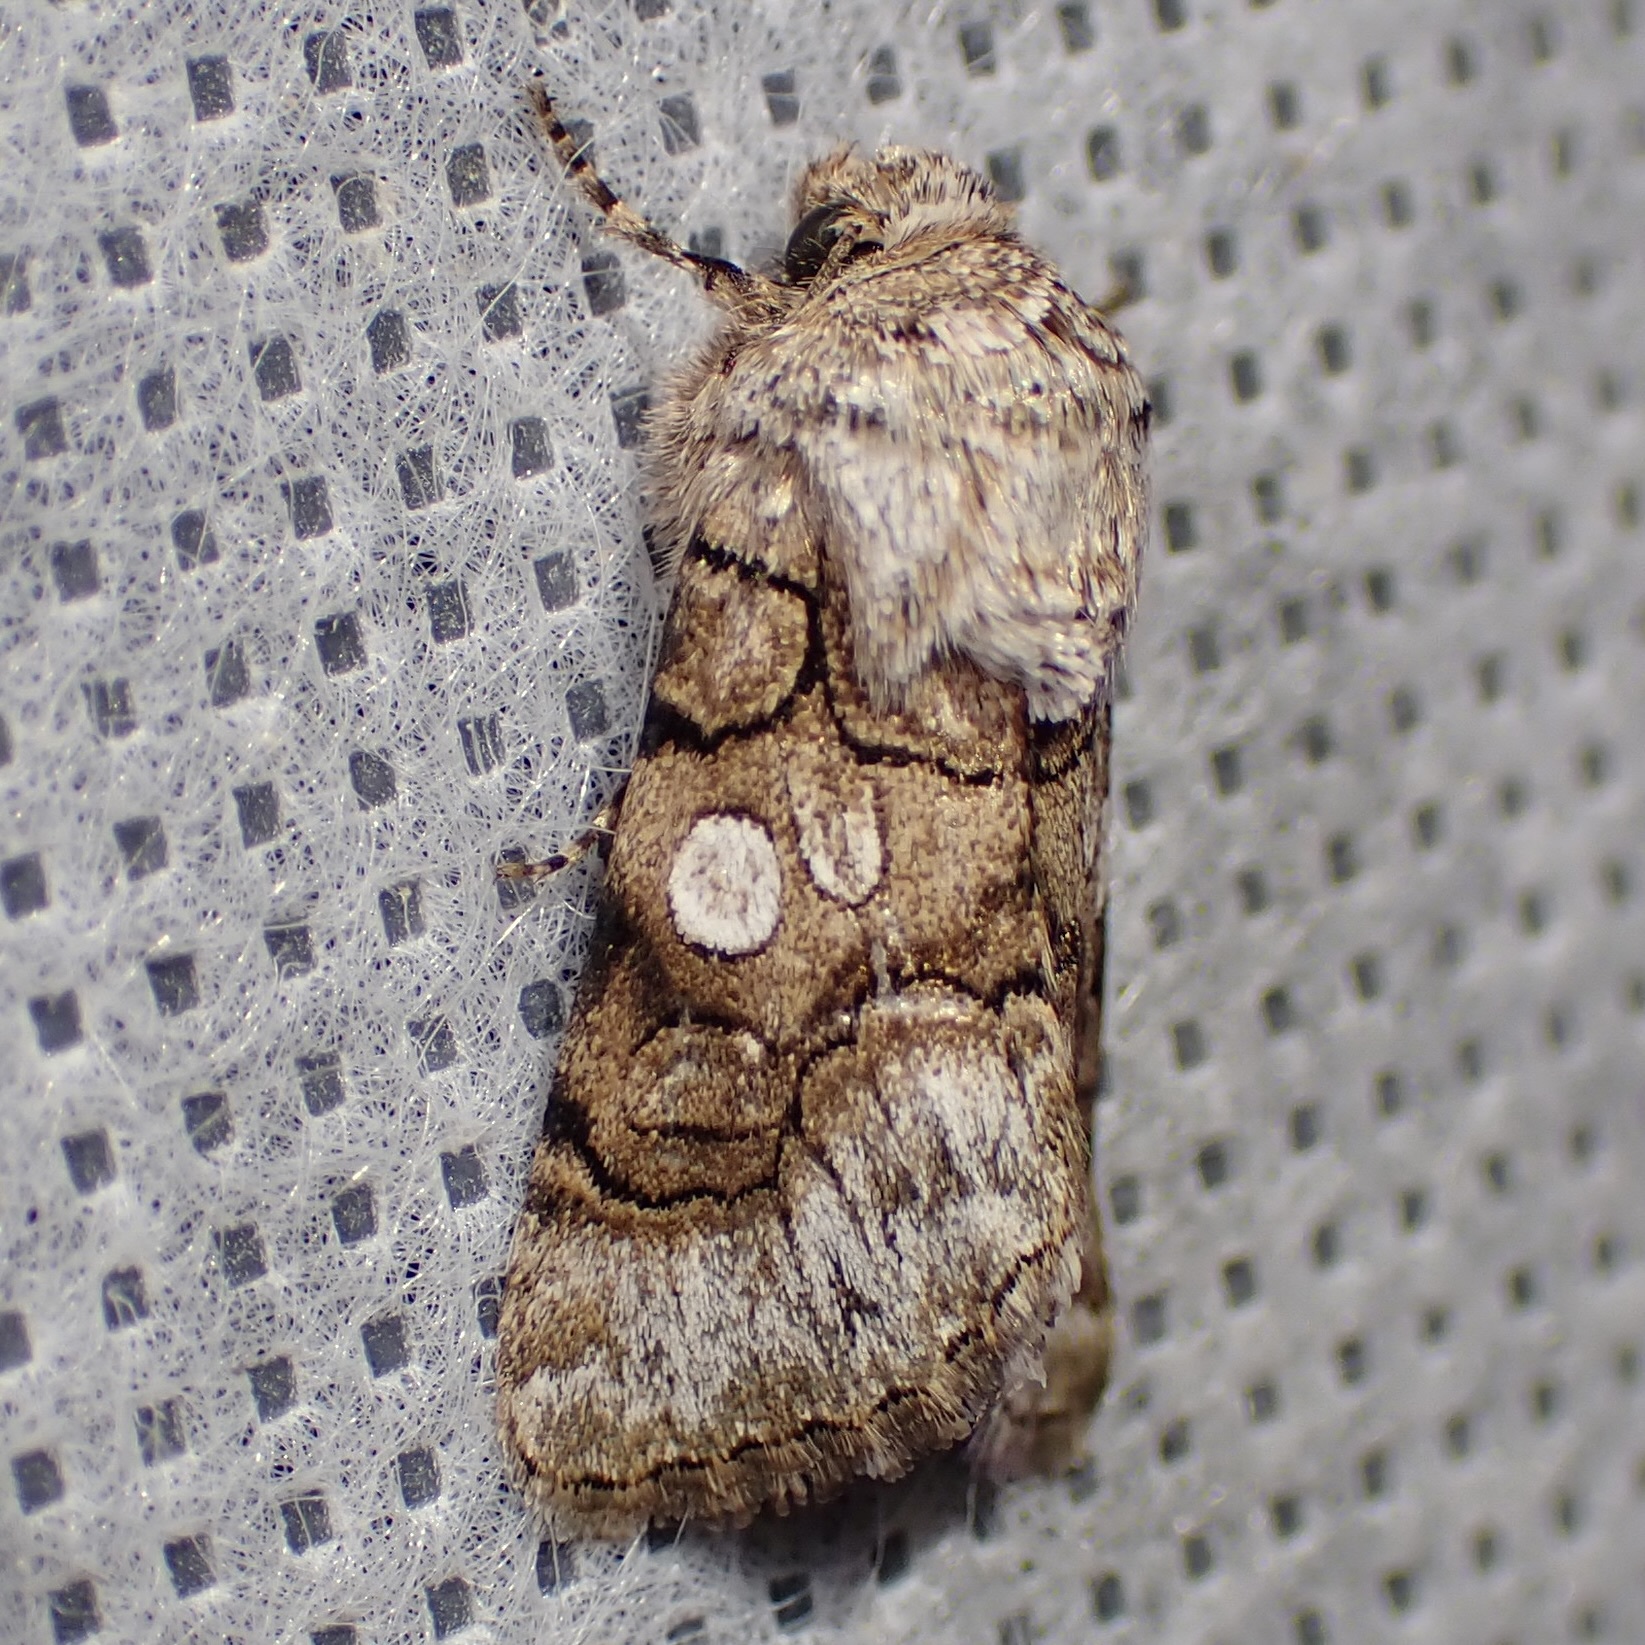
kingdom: Animalia
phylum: Arthropoda
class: Insecta
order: Lepidoptera
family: Noctuidae
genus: Sympistis
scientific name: Sympistis polingii
